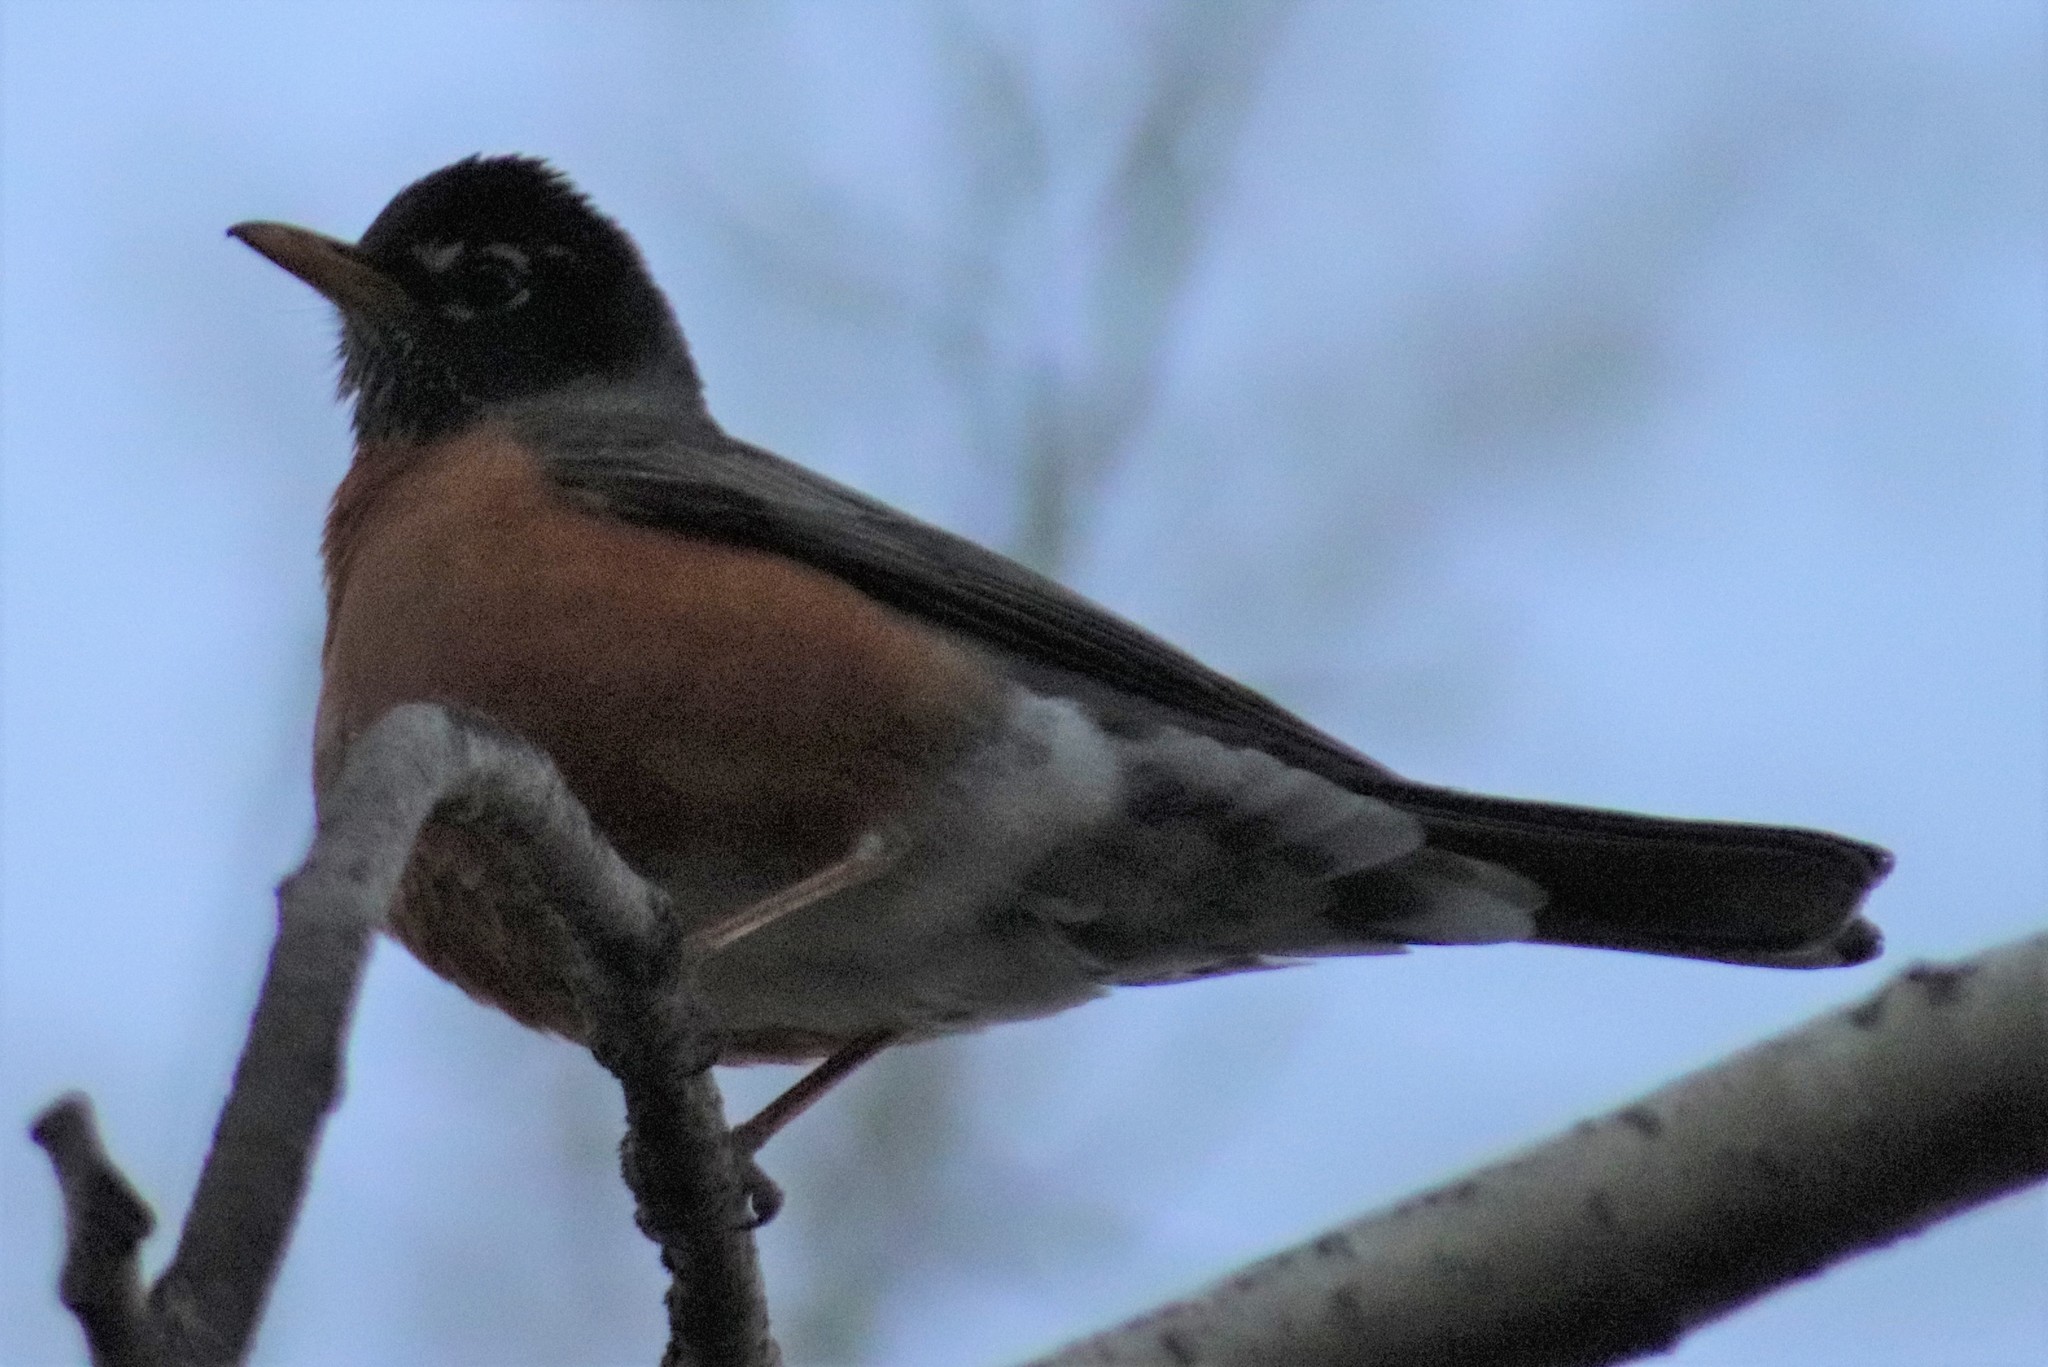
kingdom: Animalia
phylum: Chordata
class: Aves
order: Passeriformes
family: Turdidae
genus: Turdus
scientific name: Turdus migratorius
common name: American robin
